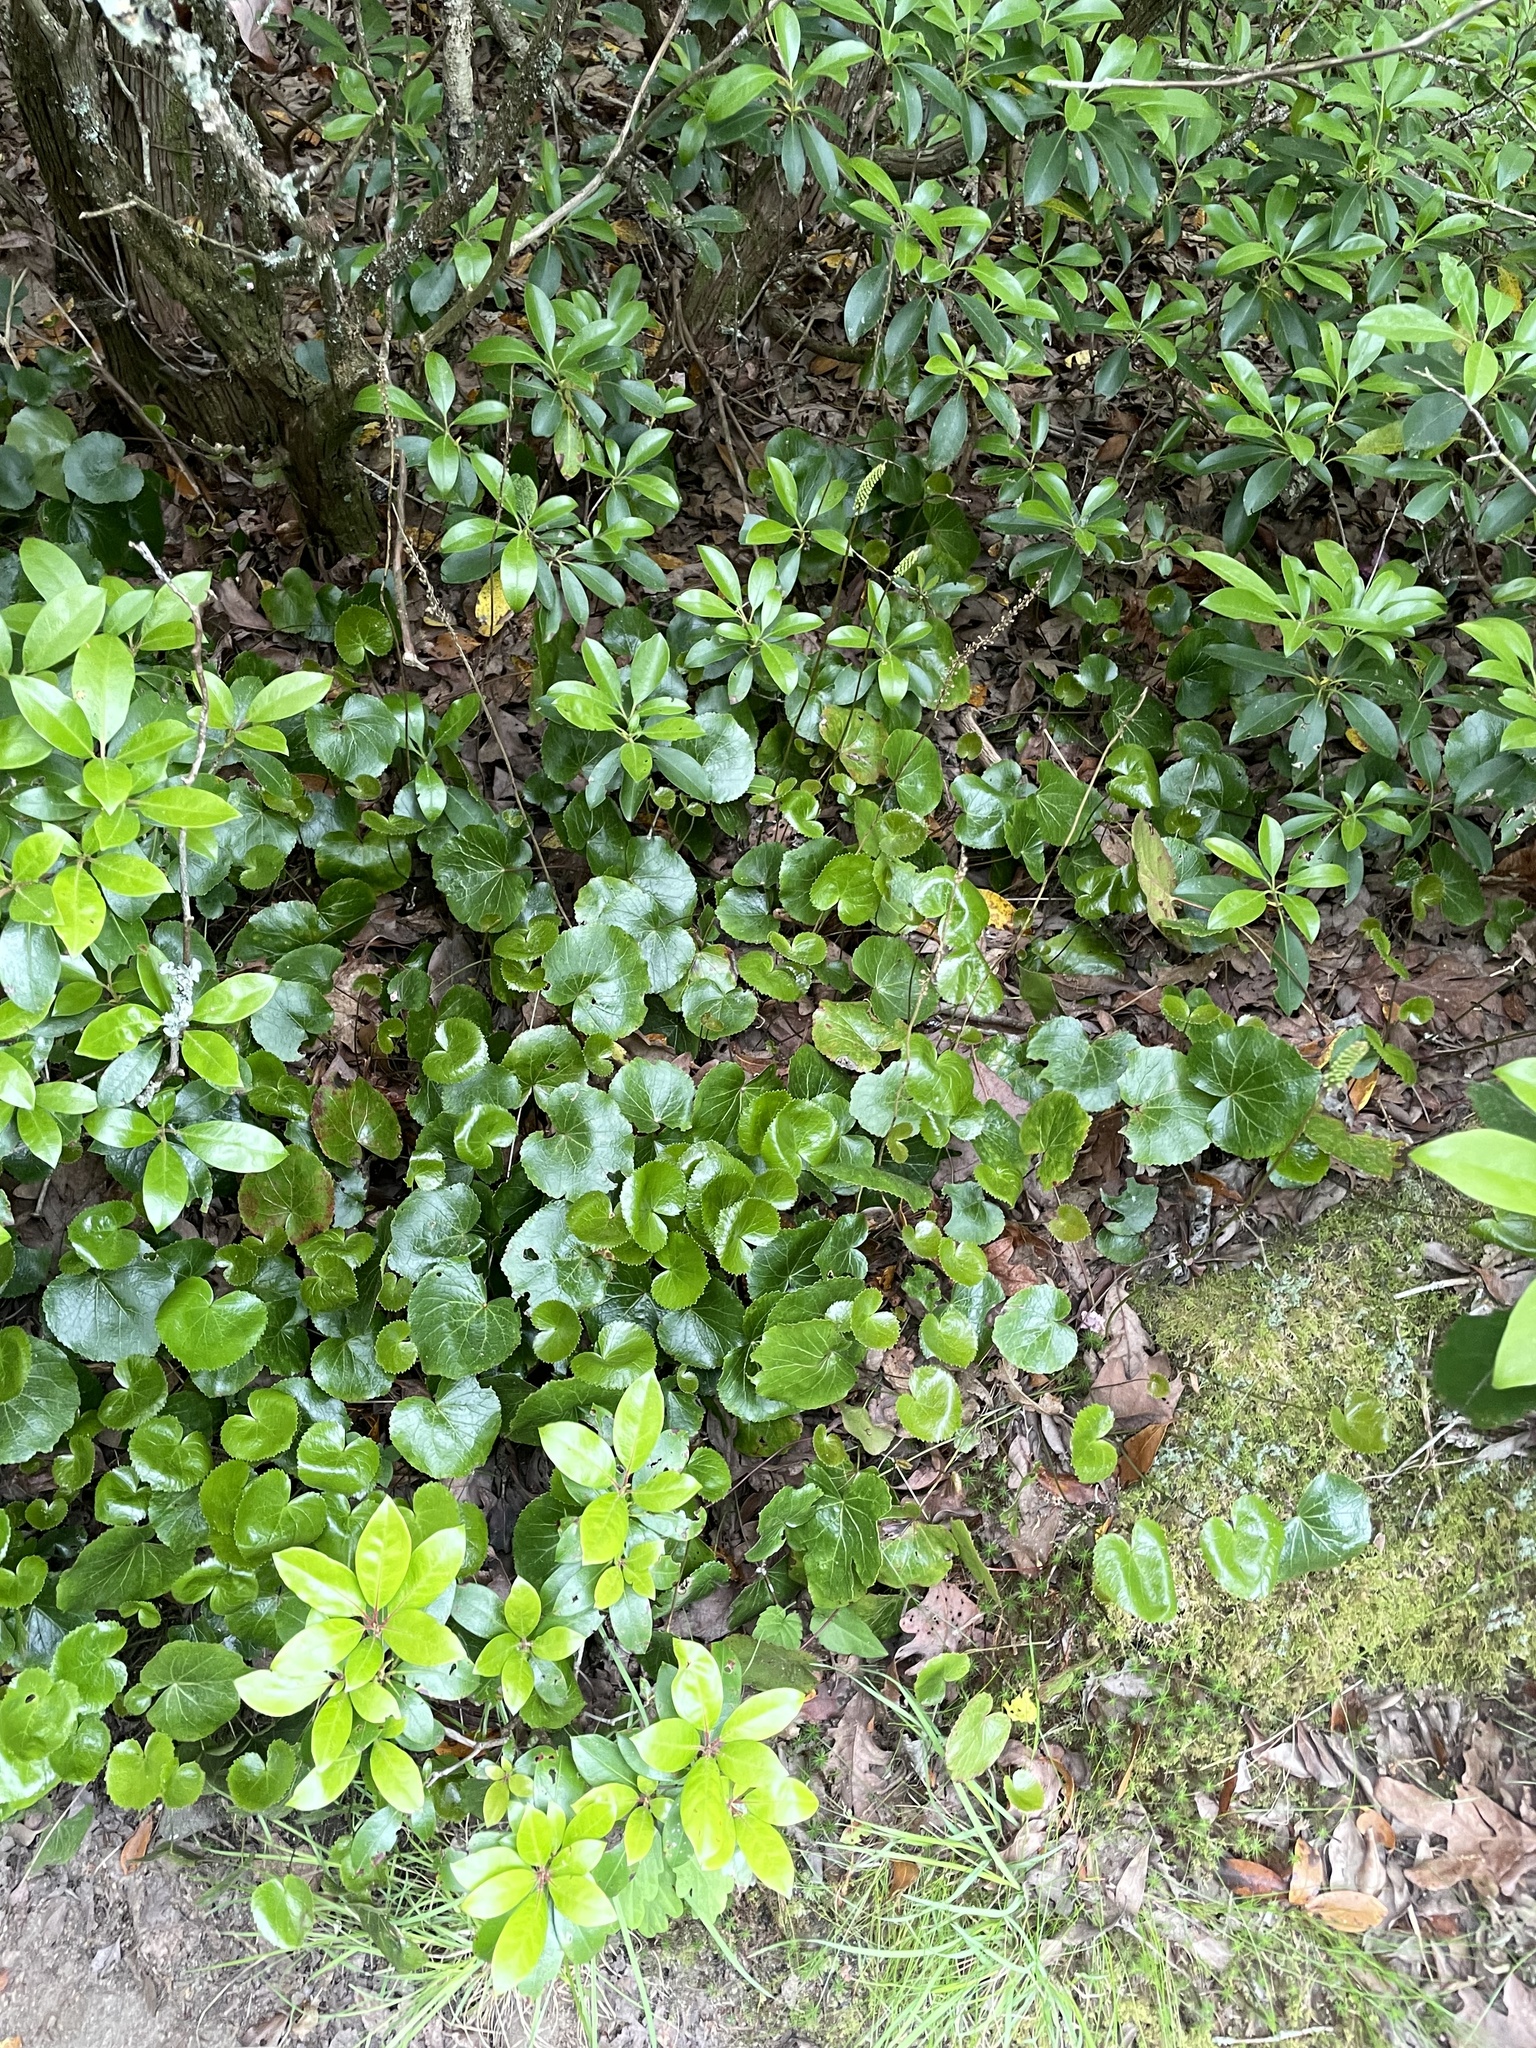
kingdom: Plantae
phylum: Tracheophyta
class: Magnoliopsida
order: Ericales
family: Diapensiaceae
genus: Galax
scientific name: Galax urceolata
